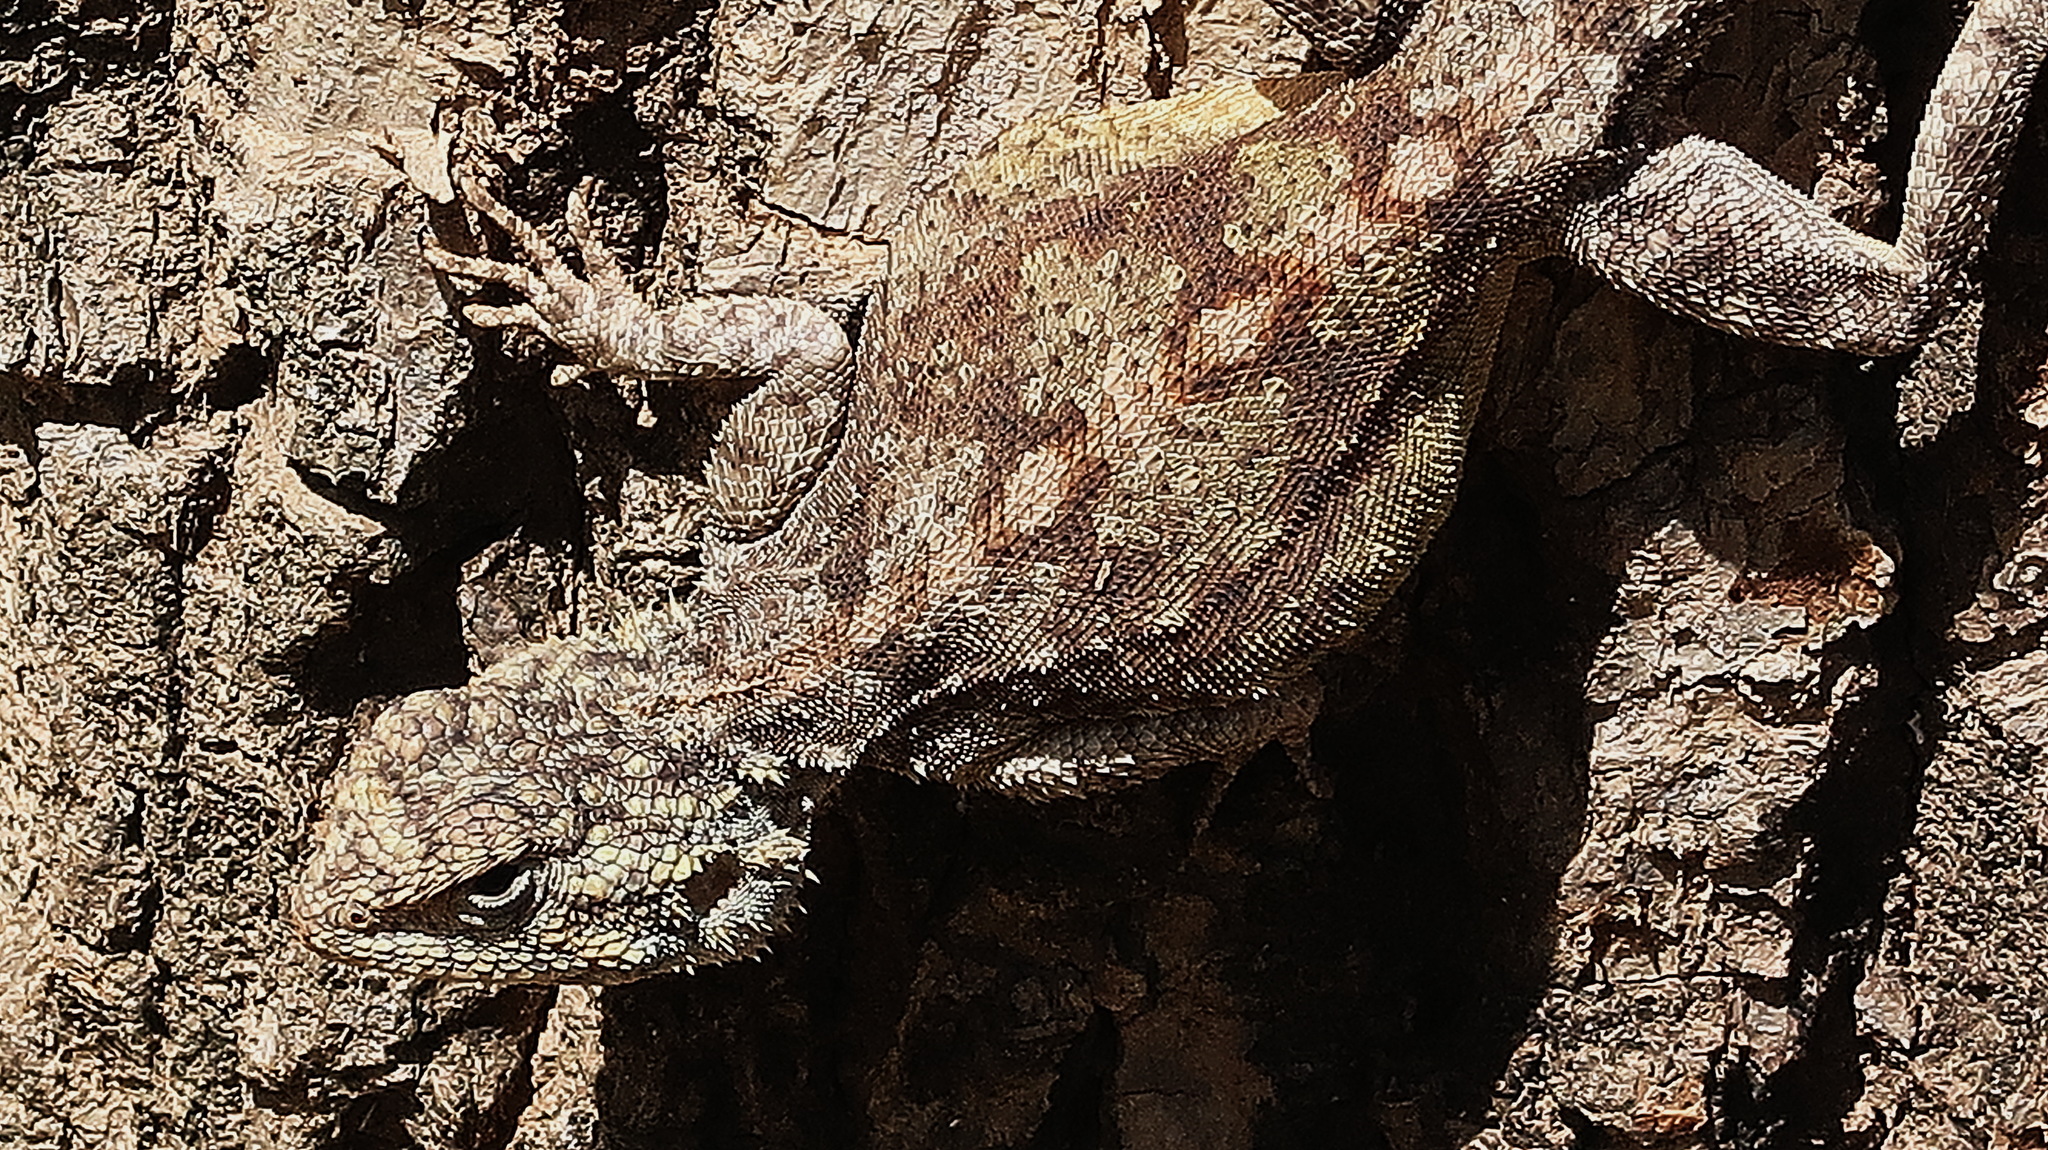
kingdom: Animalia
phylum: Chordata
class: Squamata
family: Agamidae
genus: Agama
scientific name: Agama atra
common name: Southern african rock agama
